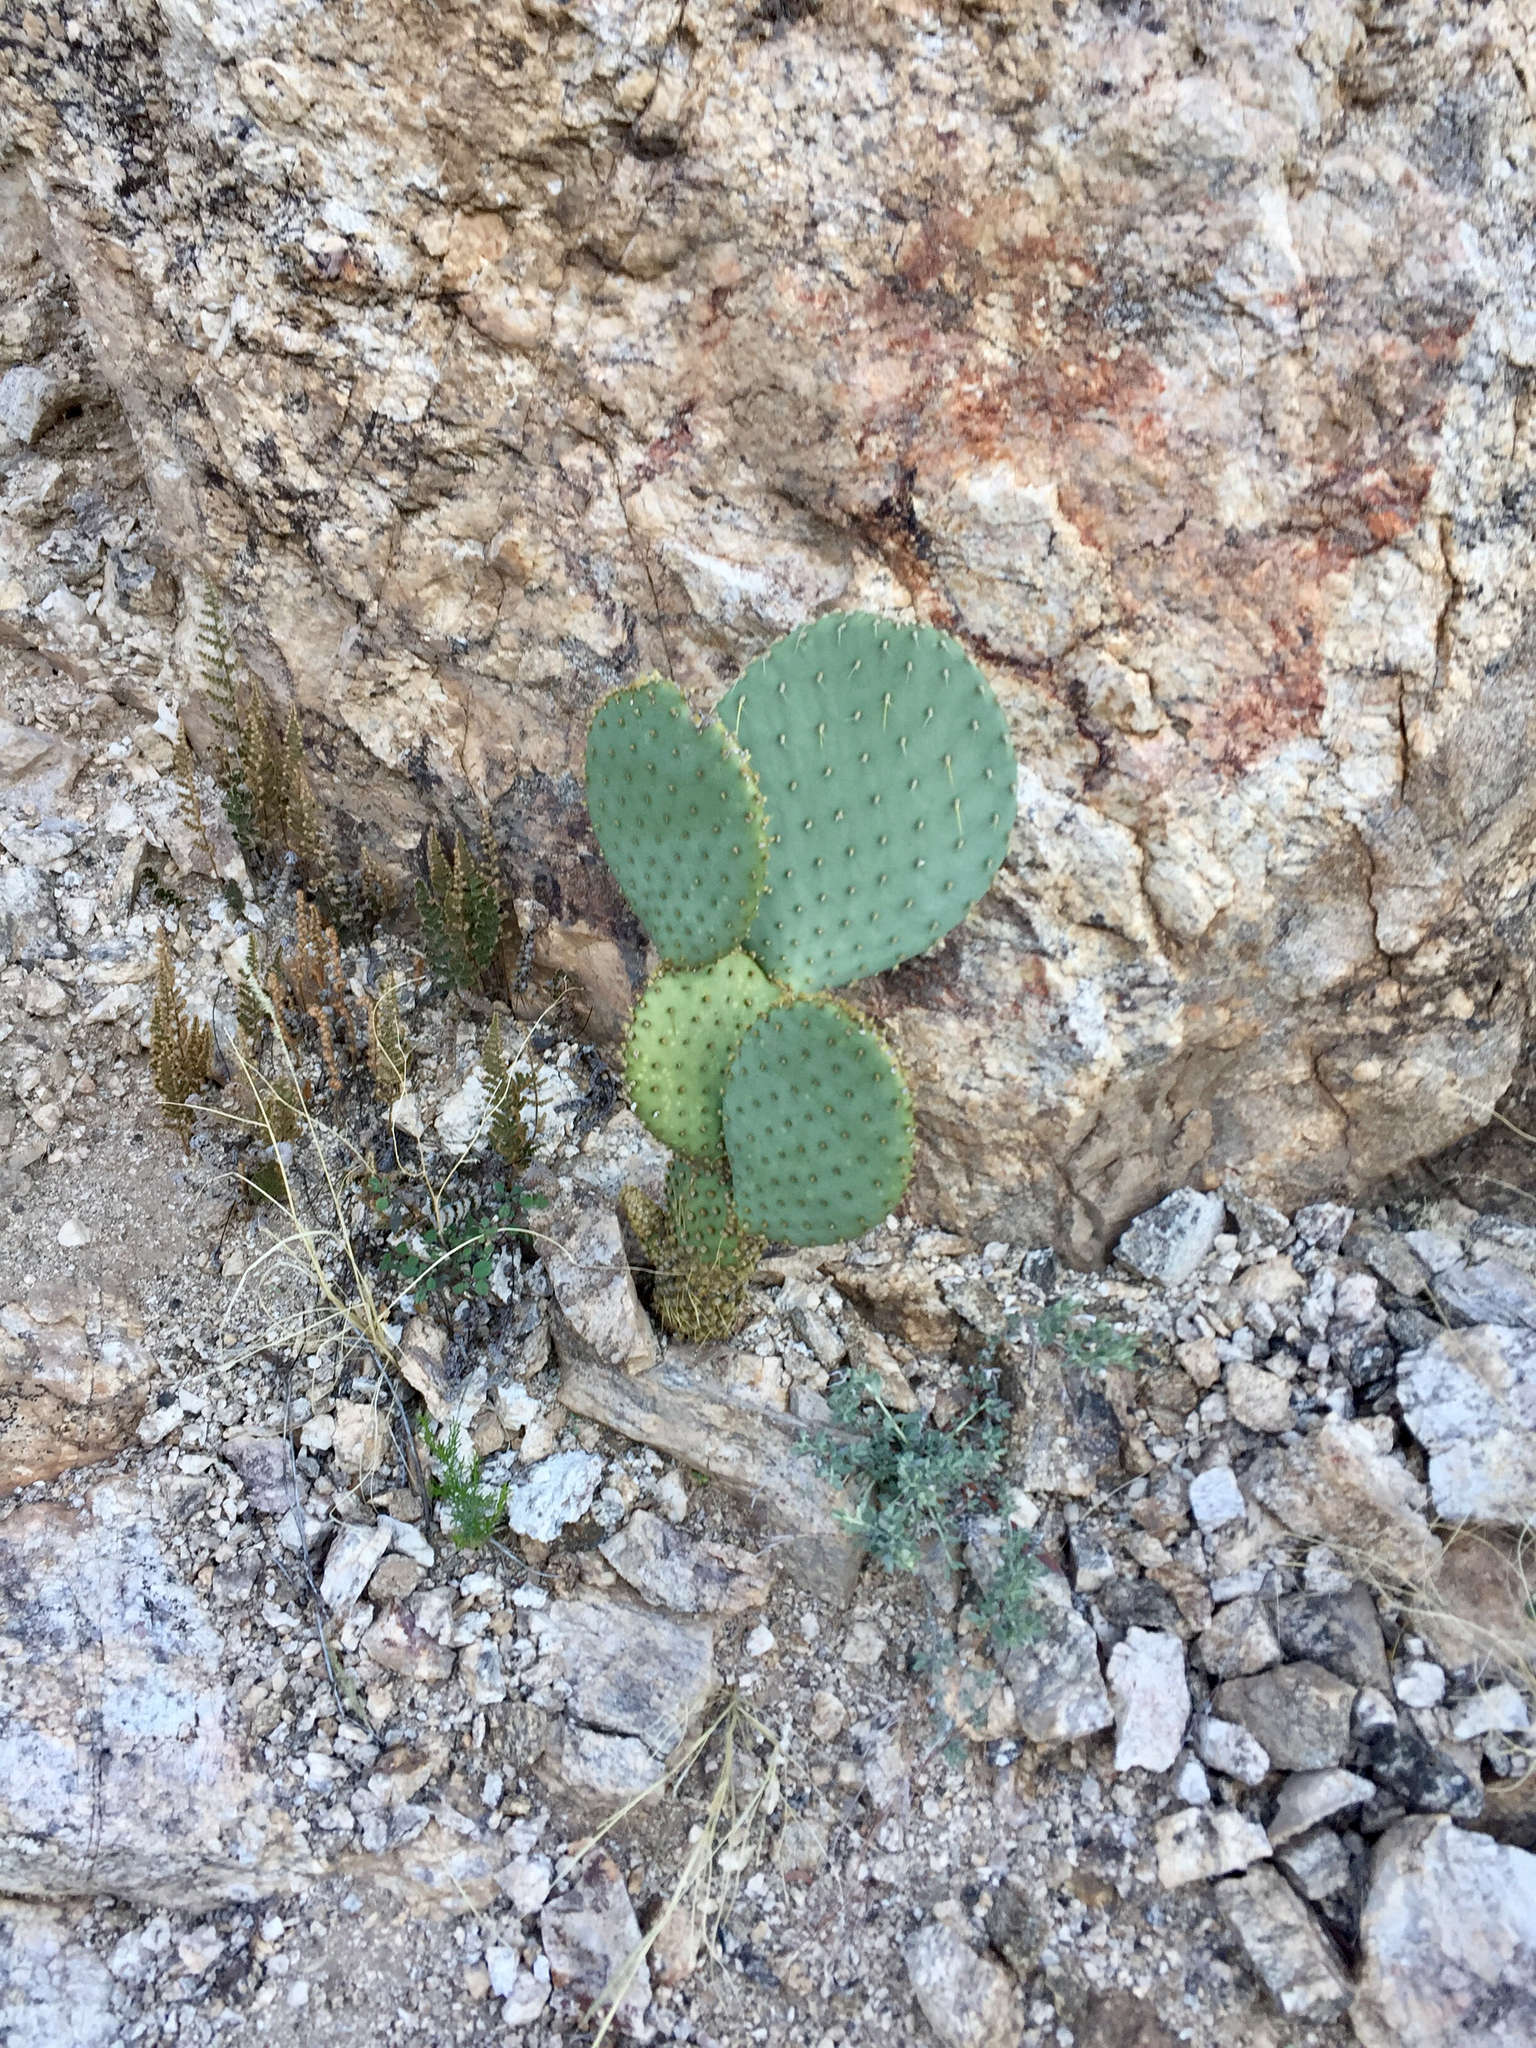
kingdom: Plantae
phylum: Tracheophyta
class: Magnoliopsida
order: Caryophyllales
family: Cactaceae
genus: Opuntia
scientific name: Opuntia chlorotica
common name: Dollar-joint prickly-pear
